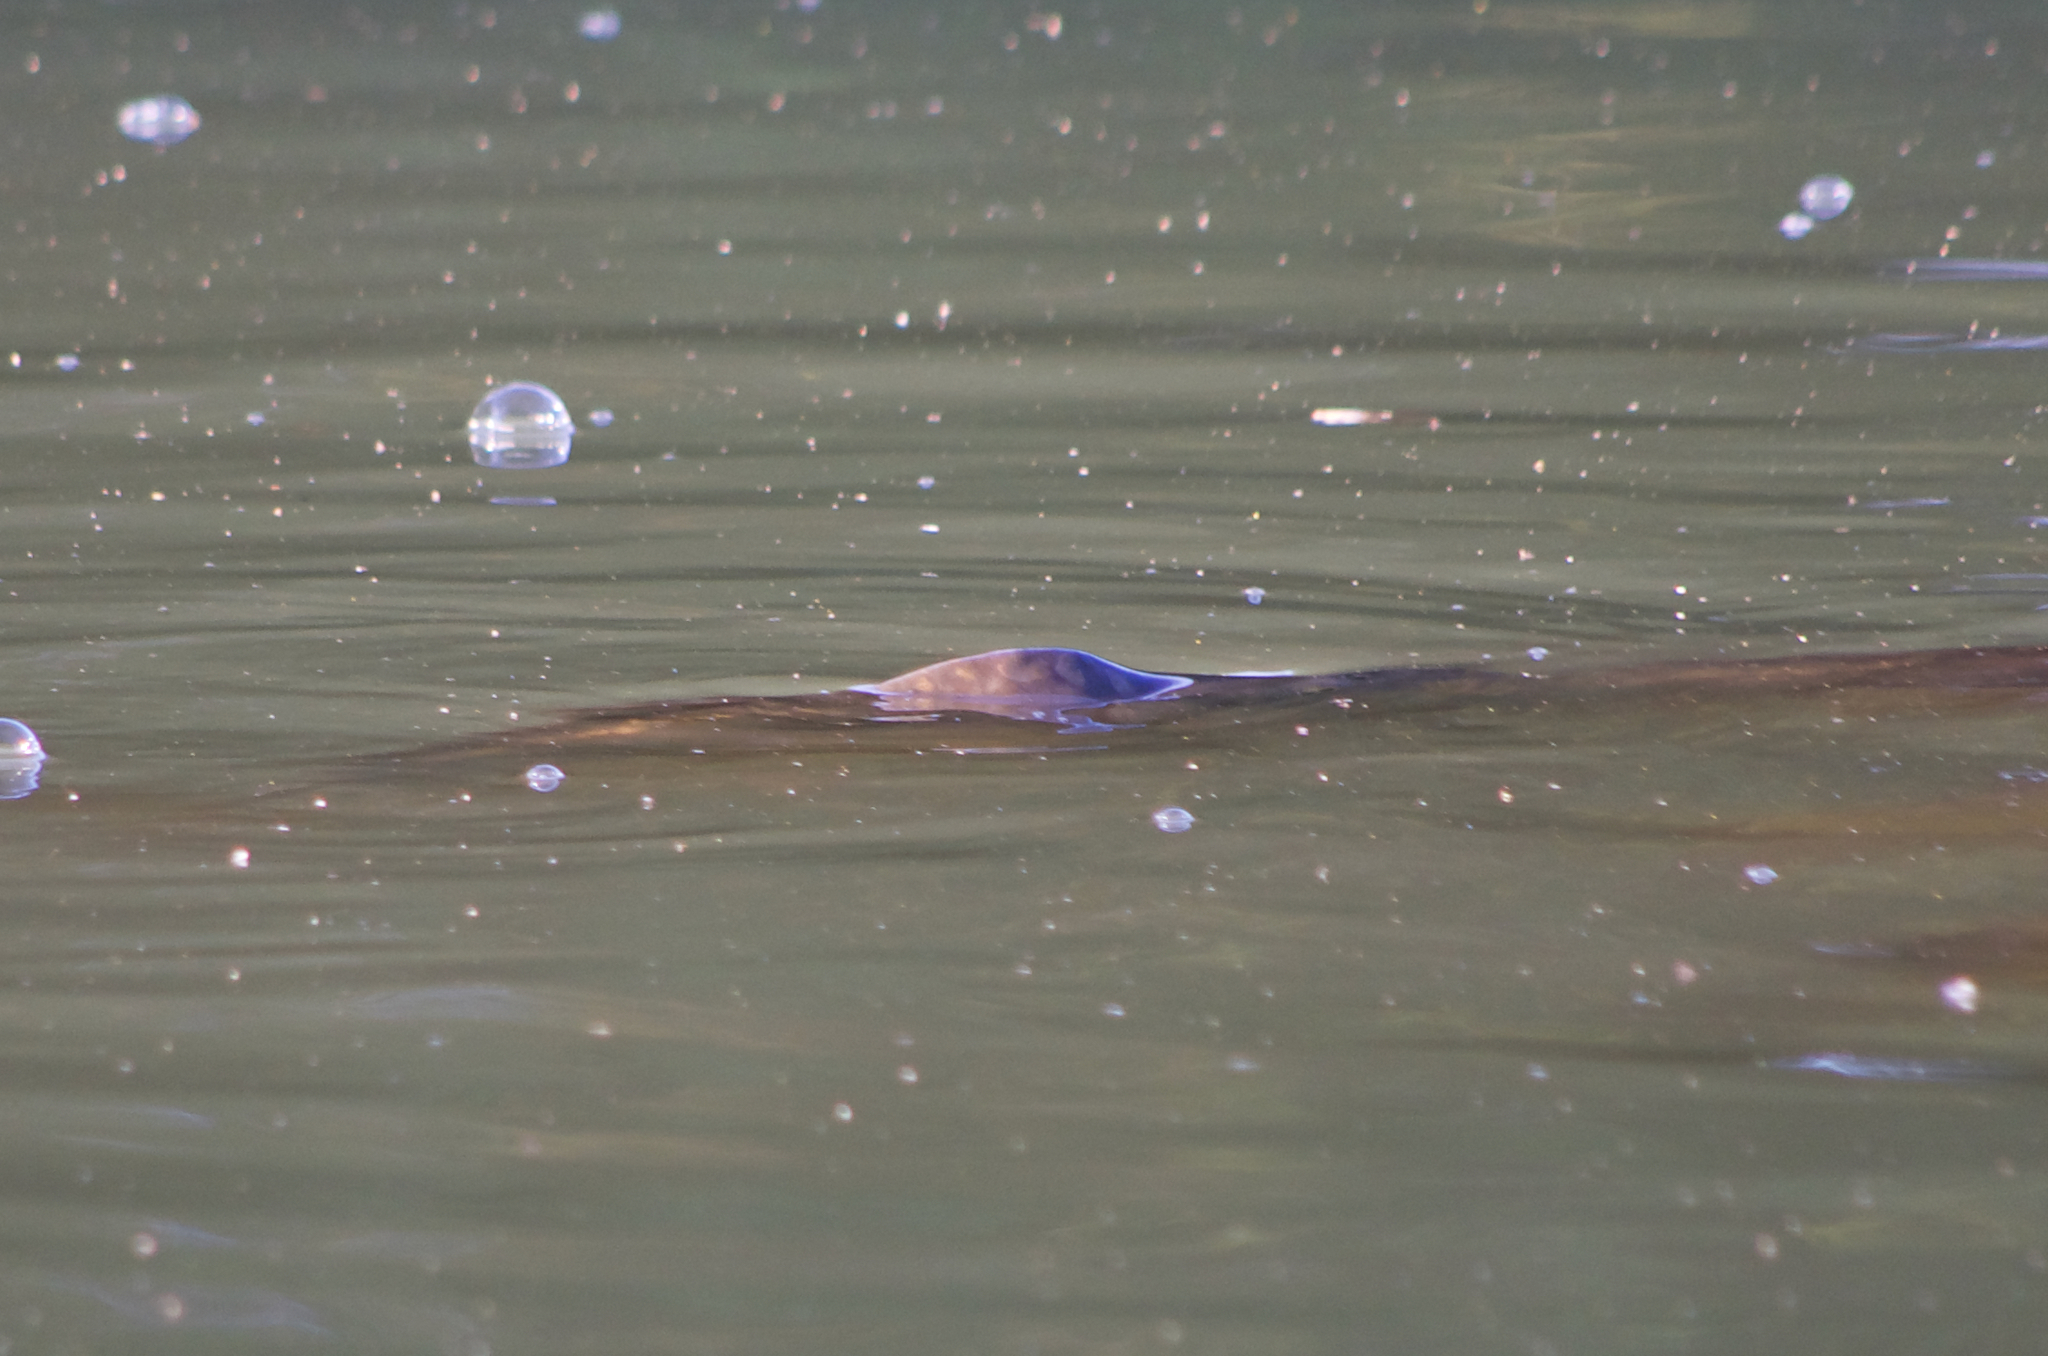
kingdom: Animalia
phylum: Chordata
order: Cypriniformes
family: Cyprinidae
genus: Cyprinus
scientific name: Cyprinus carpio
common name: Common carp
